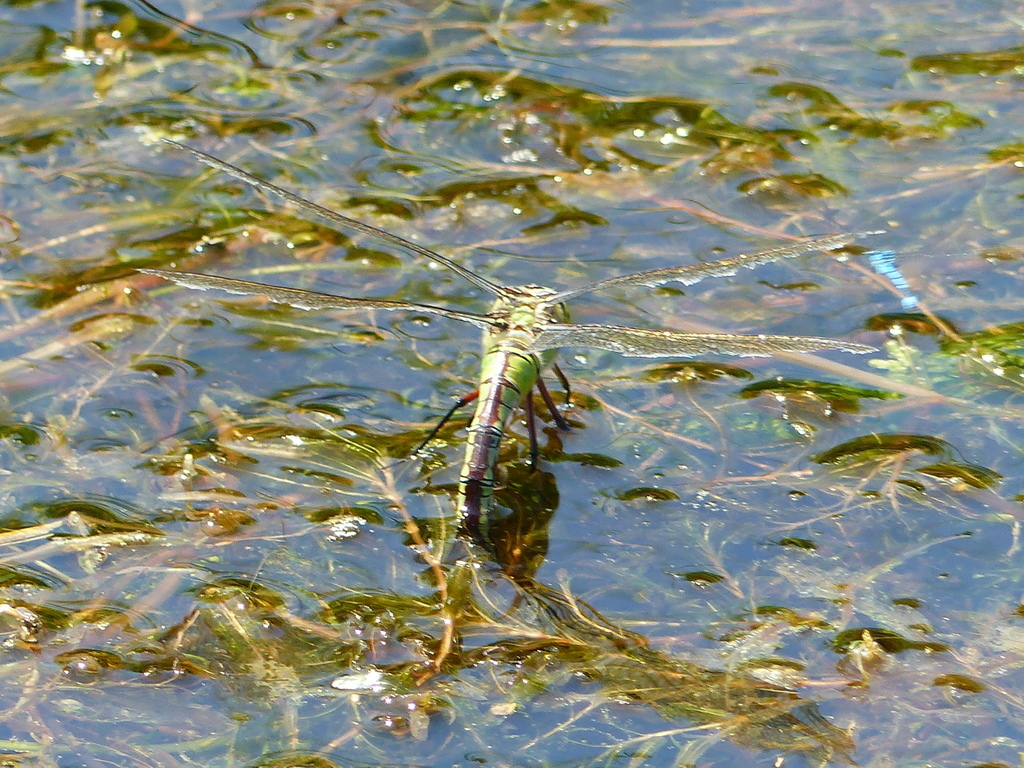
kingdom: Animalia
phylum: Arthropoda
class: Insecta
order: Odonata
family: Aeshnidae
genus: Anax
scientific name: Anax imperator
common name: Emperor dragonfly
